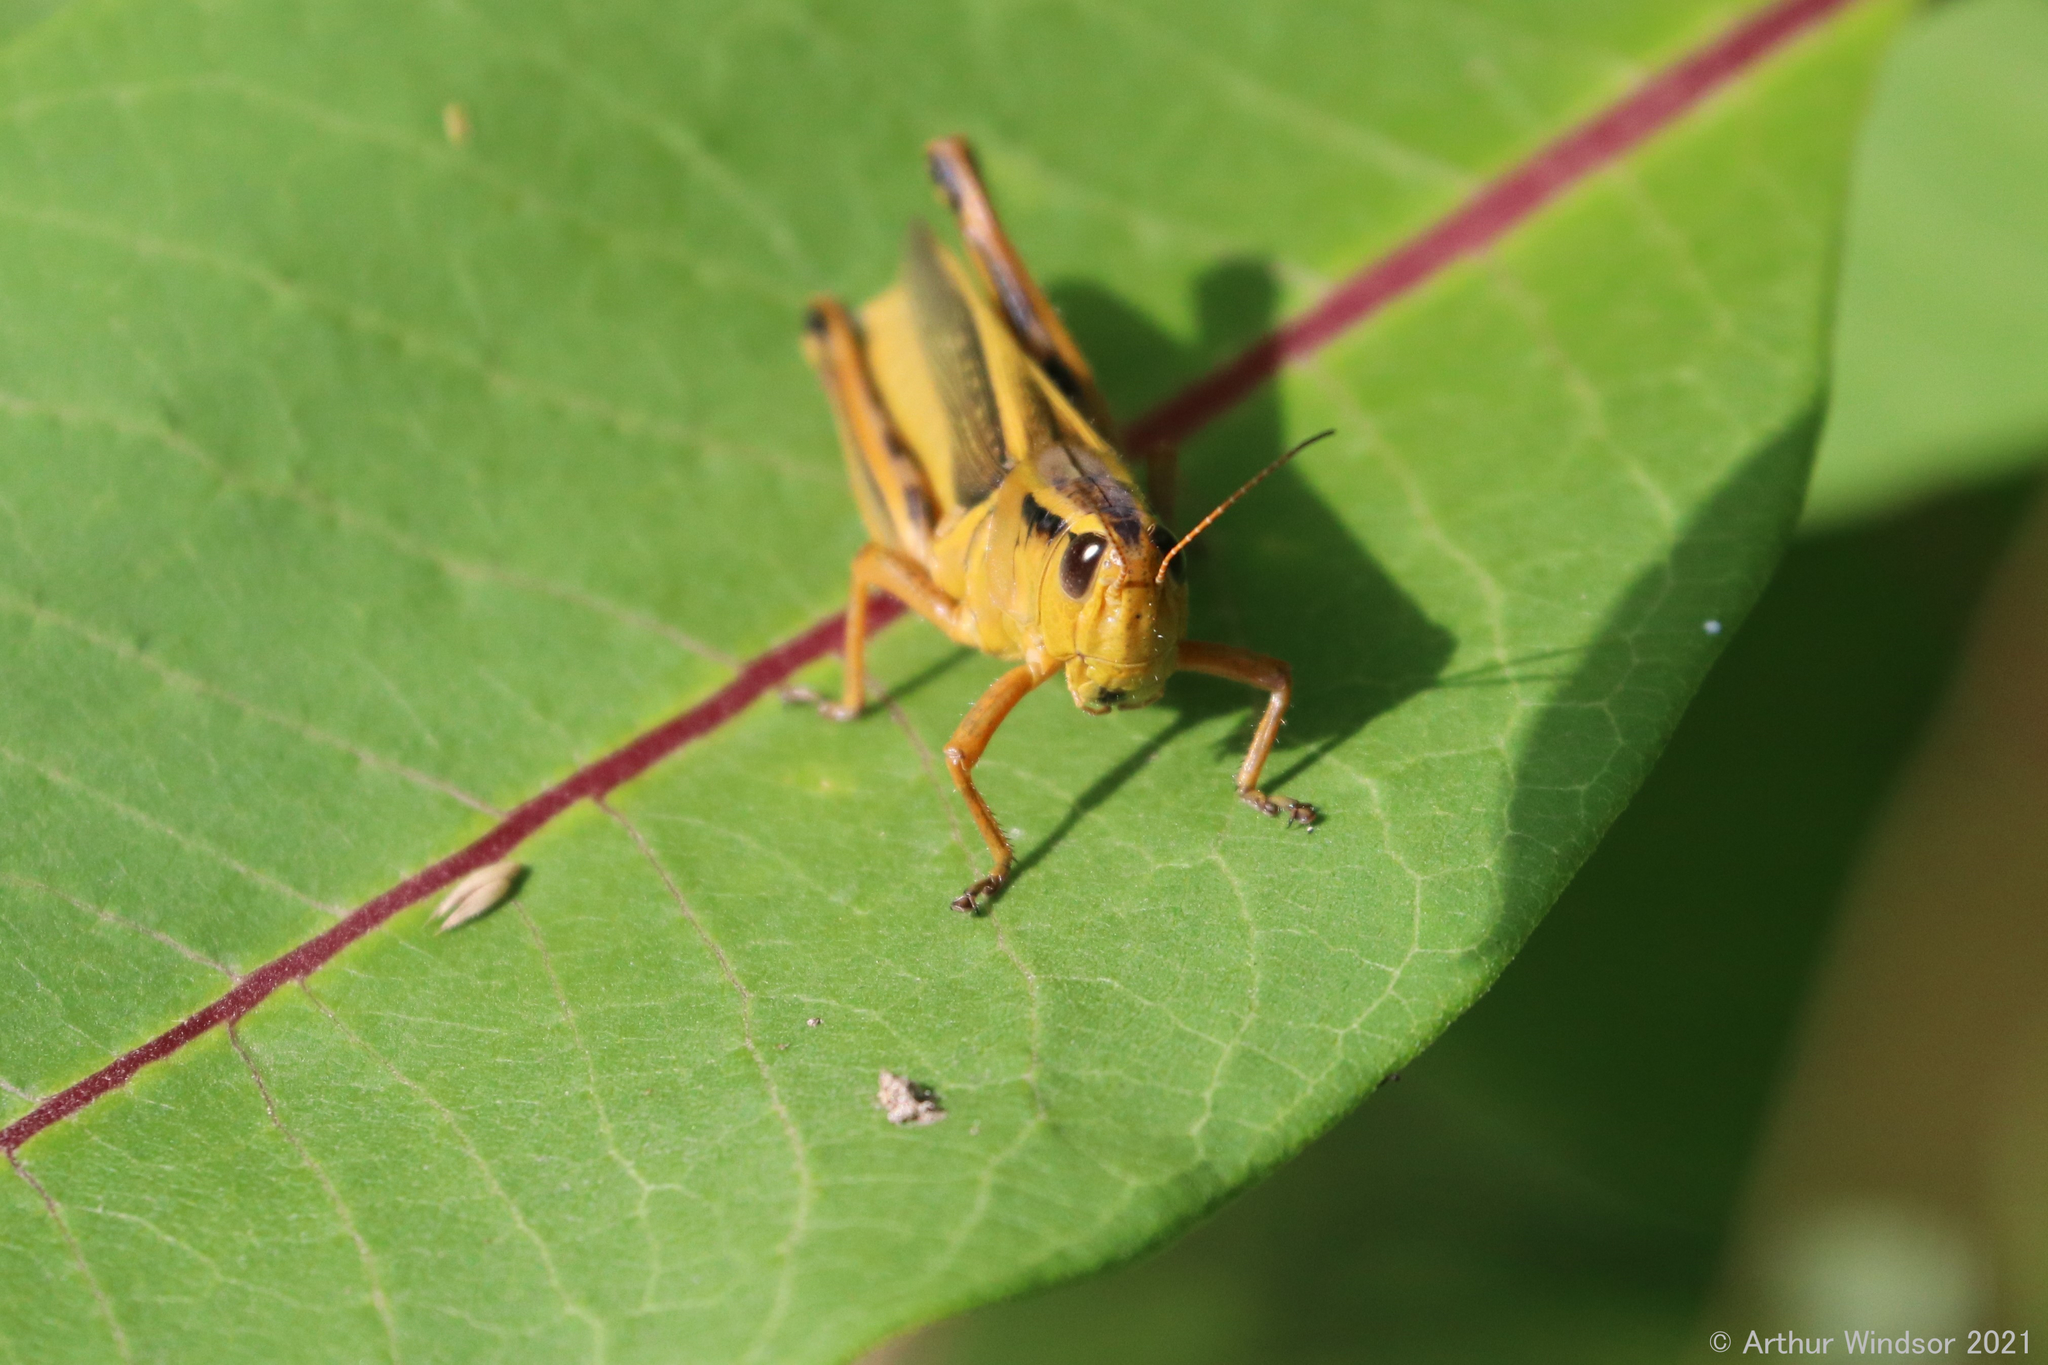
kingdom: Animalia
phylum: Arthropoda
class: Insecta
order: Orthoptera
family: Acrididae
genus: Melanoplus
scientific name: Melanoplus bivittatus
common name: Two-striped grasshopper
